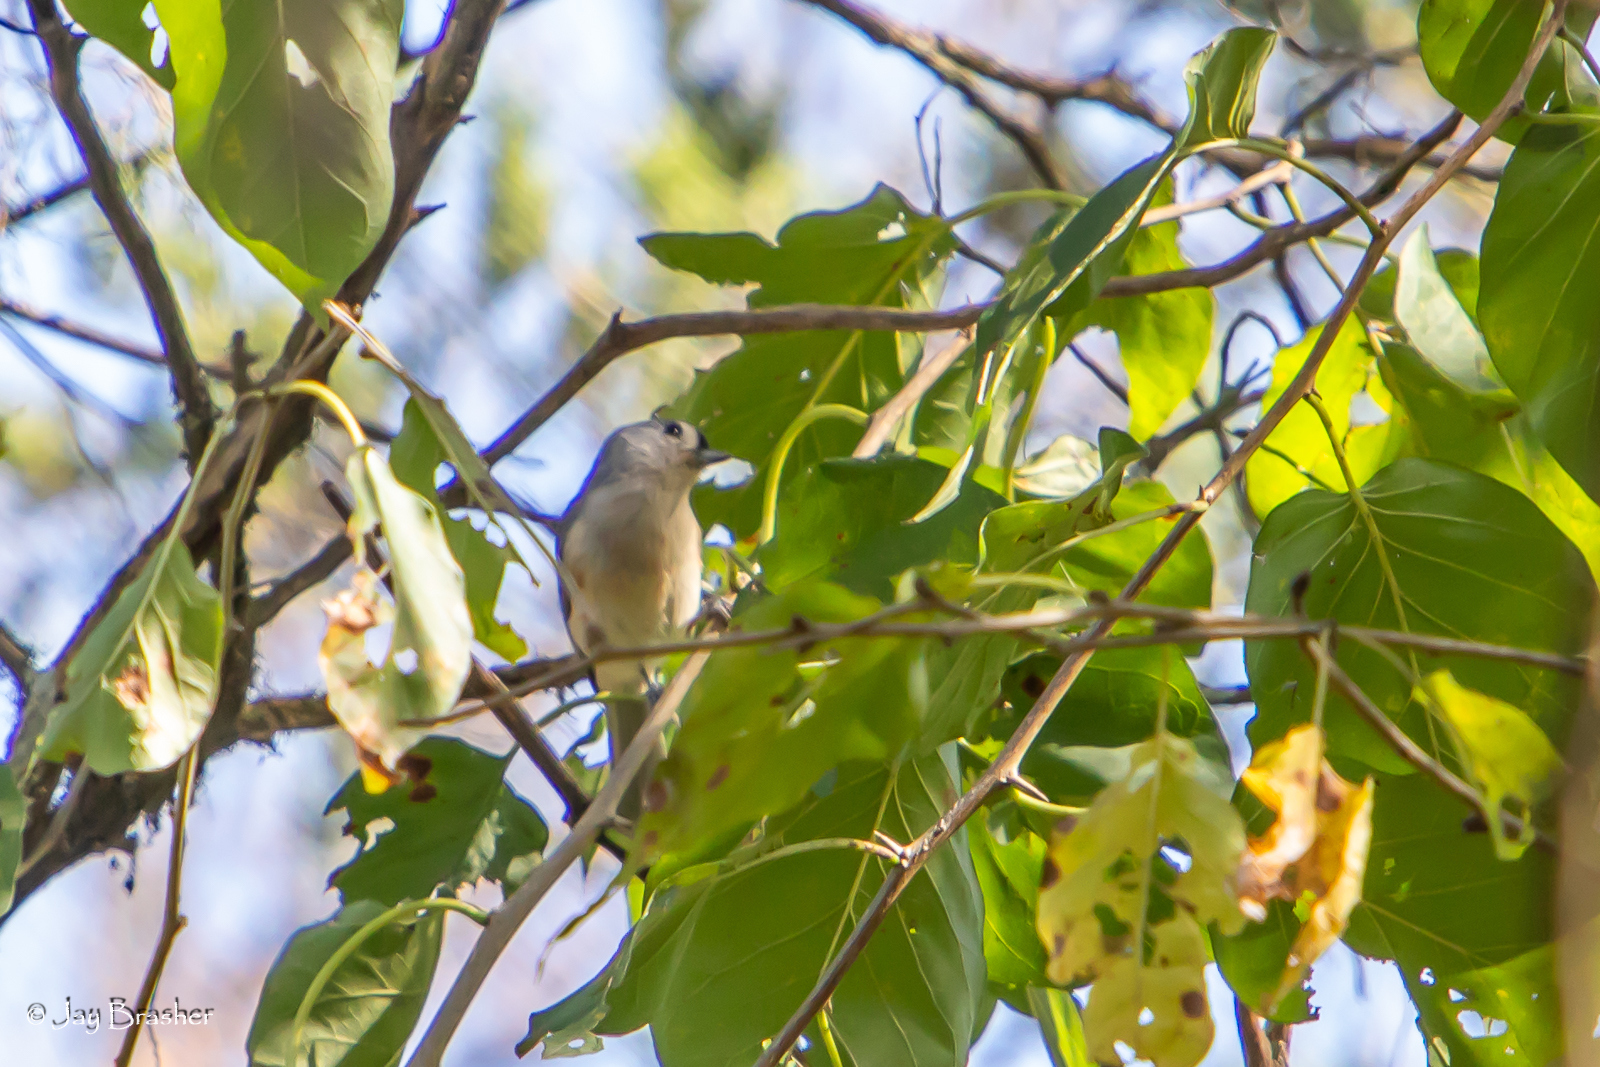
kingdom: Animalia
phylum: Chordata
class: Aves
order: Passeriformes
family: Paridae
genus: Baeolophus
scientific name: Baeolophus bicolor
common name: Tufted titmouse
